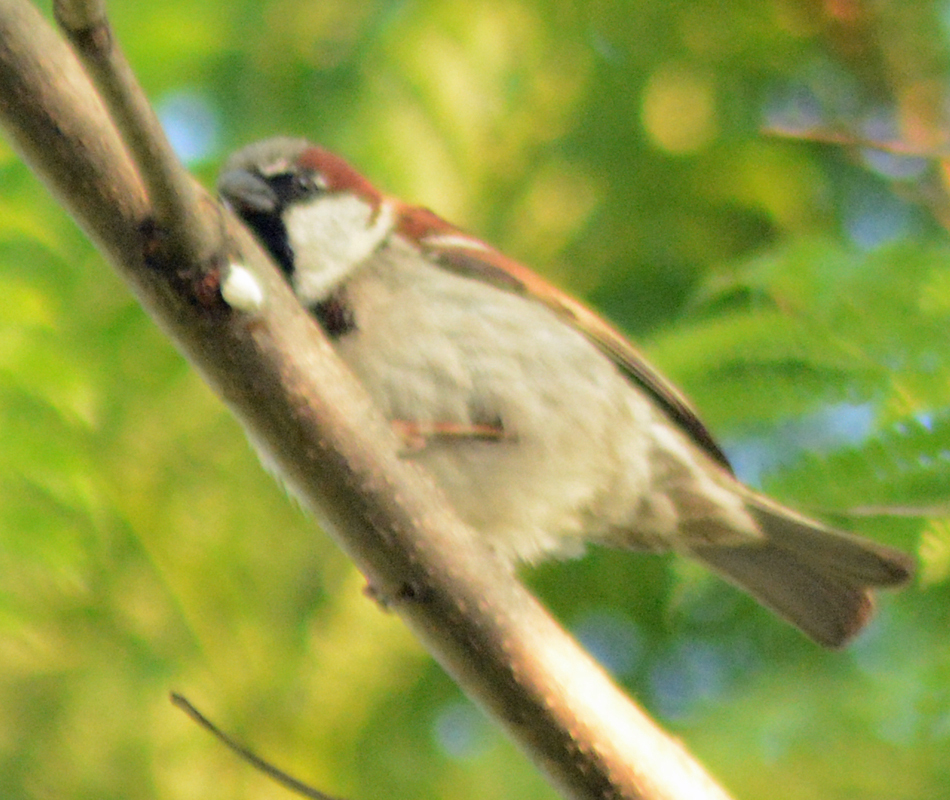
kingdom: Animalia
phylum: Chordata
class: Aves
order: Passeriformes
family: Passeridae
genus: Passer
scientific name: Passer domesticus
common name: House sparrow
